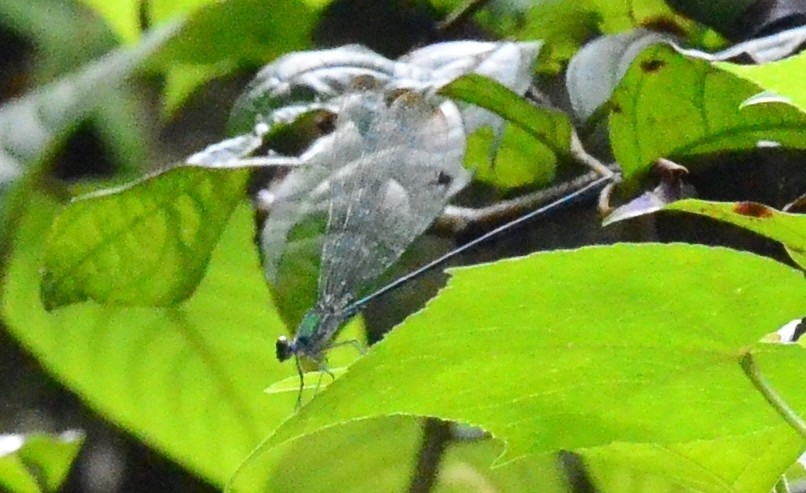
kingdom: Animalia
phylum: Arthropoda
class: Insecta
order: Odonata
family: Calopterygidae
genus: Vestalis
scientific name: Vestalis gracilis
